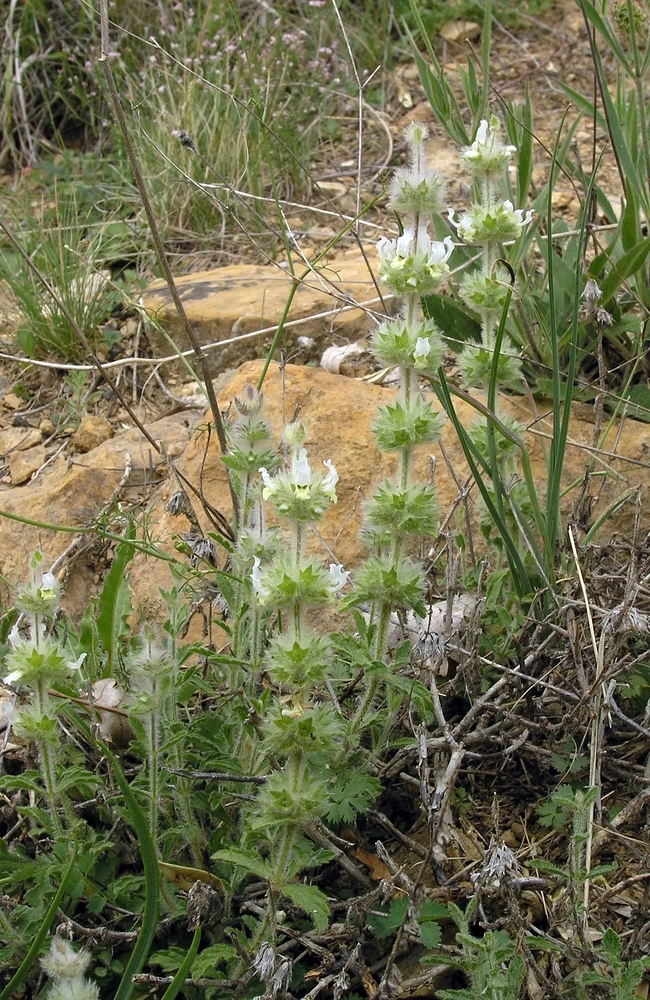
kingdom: Plantae
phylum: Tracheophyta
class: Magnoliopsida
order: Lamiales
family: Lamiaceae
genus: Sideritis
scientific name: Sideritis hirsuta
